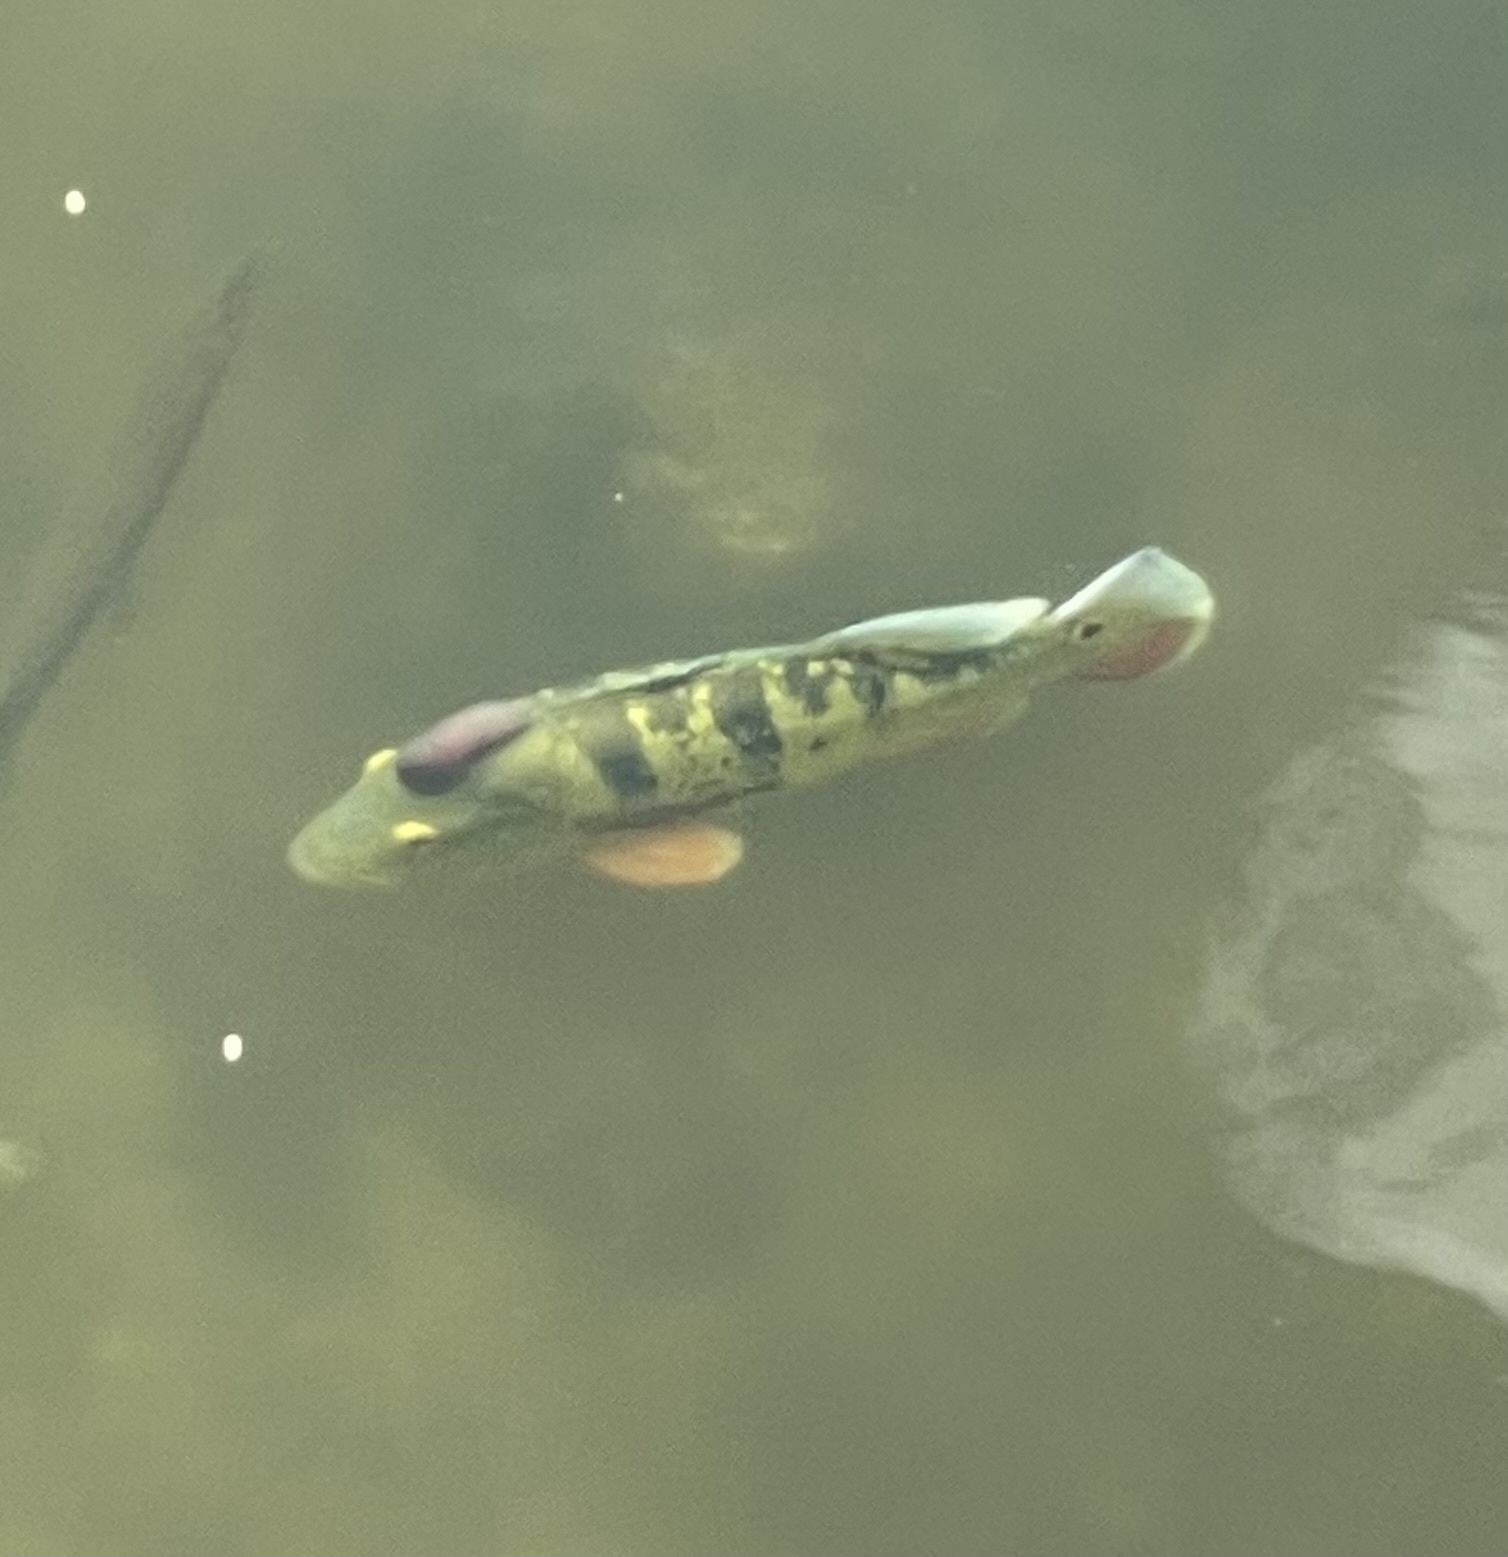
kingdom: Animalia
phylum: Chordata
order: Perciformes
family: Cichlidae
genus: Cichla
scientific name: Cichla ocellaris
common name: Peacock cichlid
